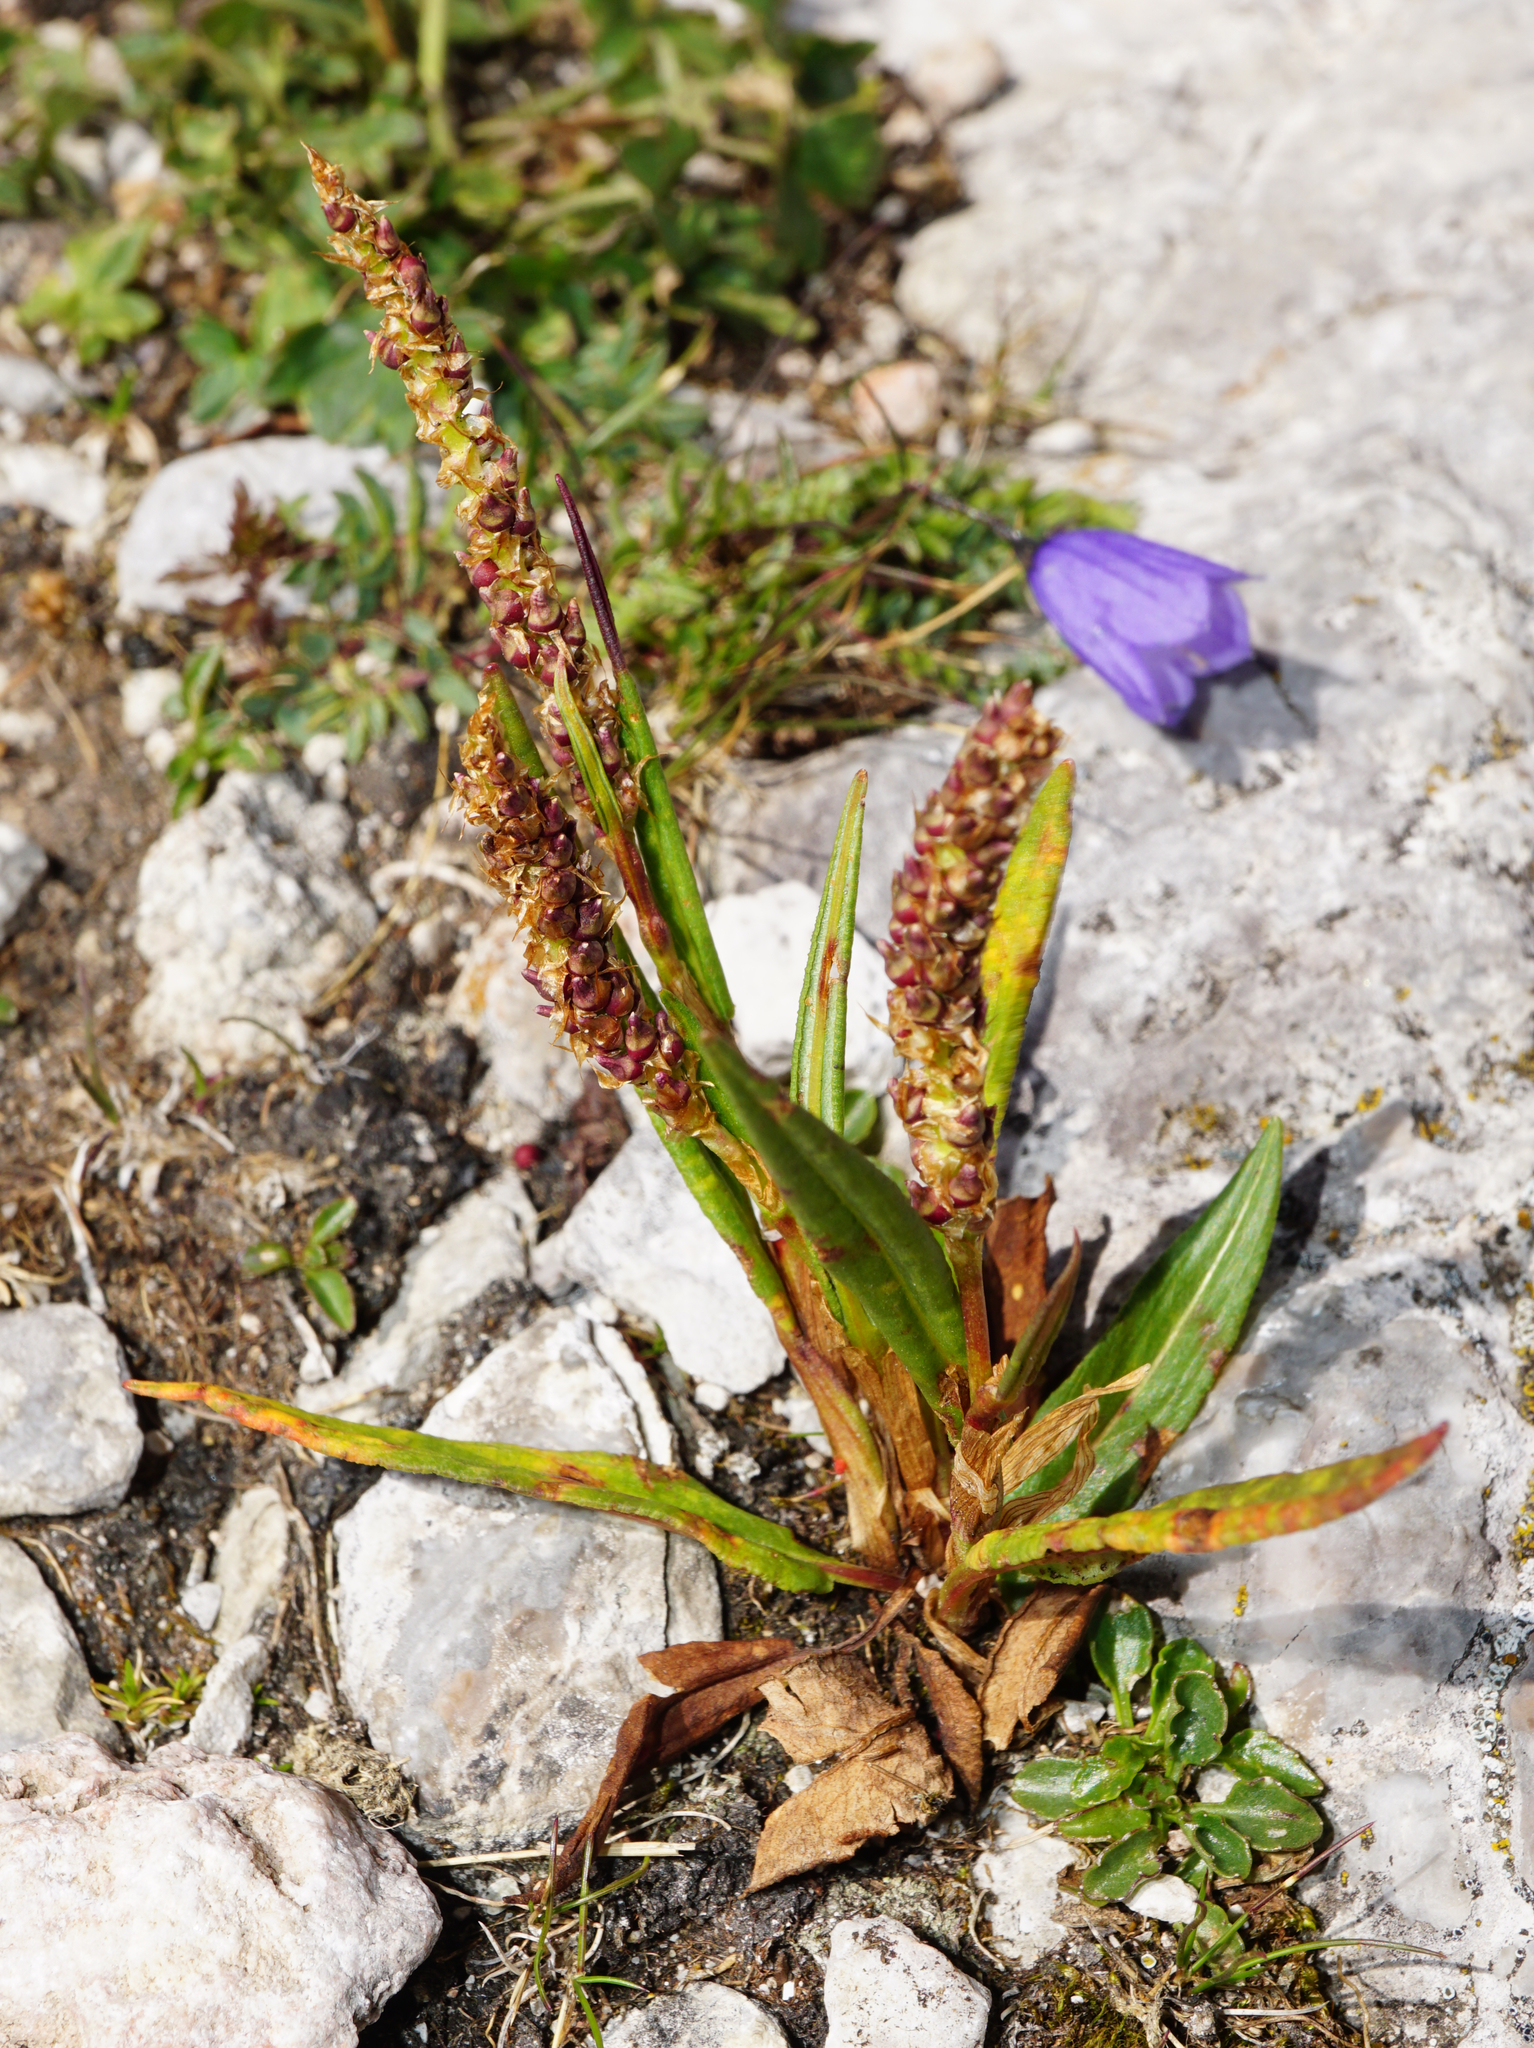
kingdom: Plantae
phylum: Tracheophyta
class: Magnoliopsida
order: Caryophyllales
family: Polygonaceae
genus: Bistorta
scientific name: Bistorta vivipara
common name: Alpine bistort
